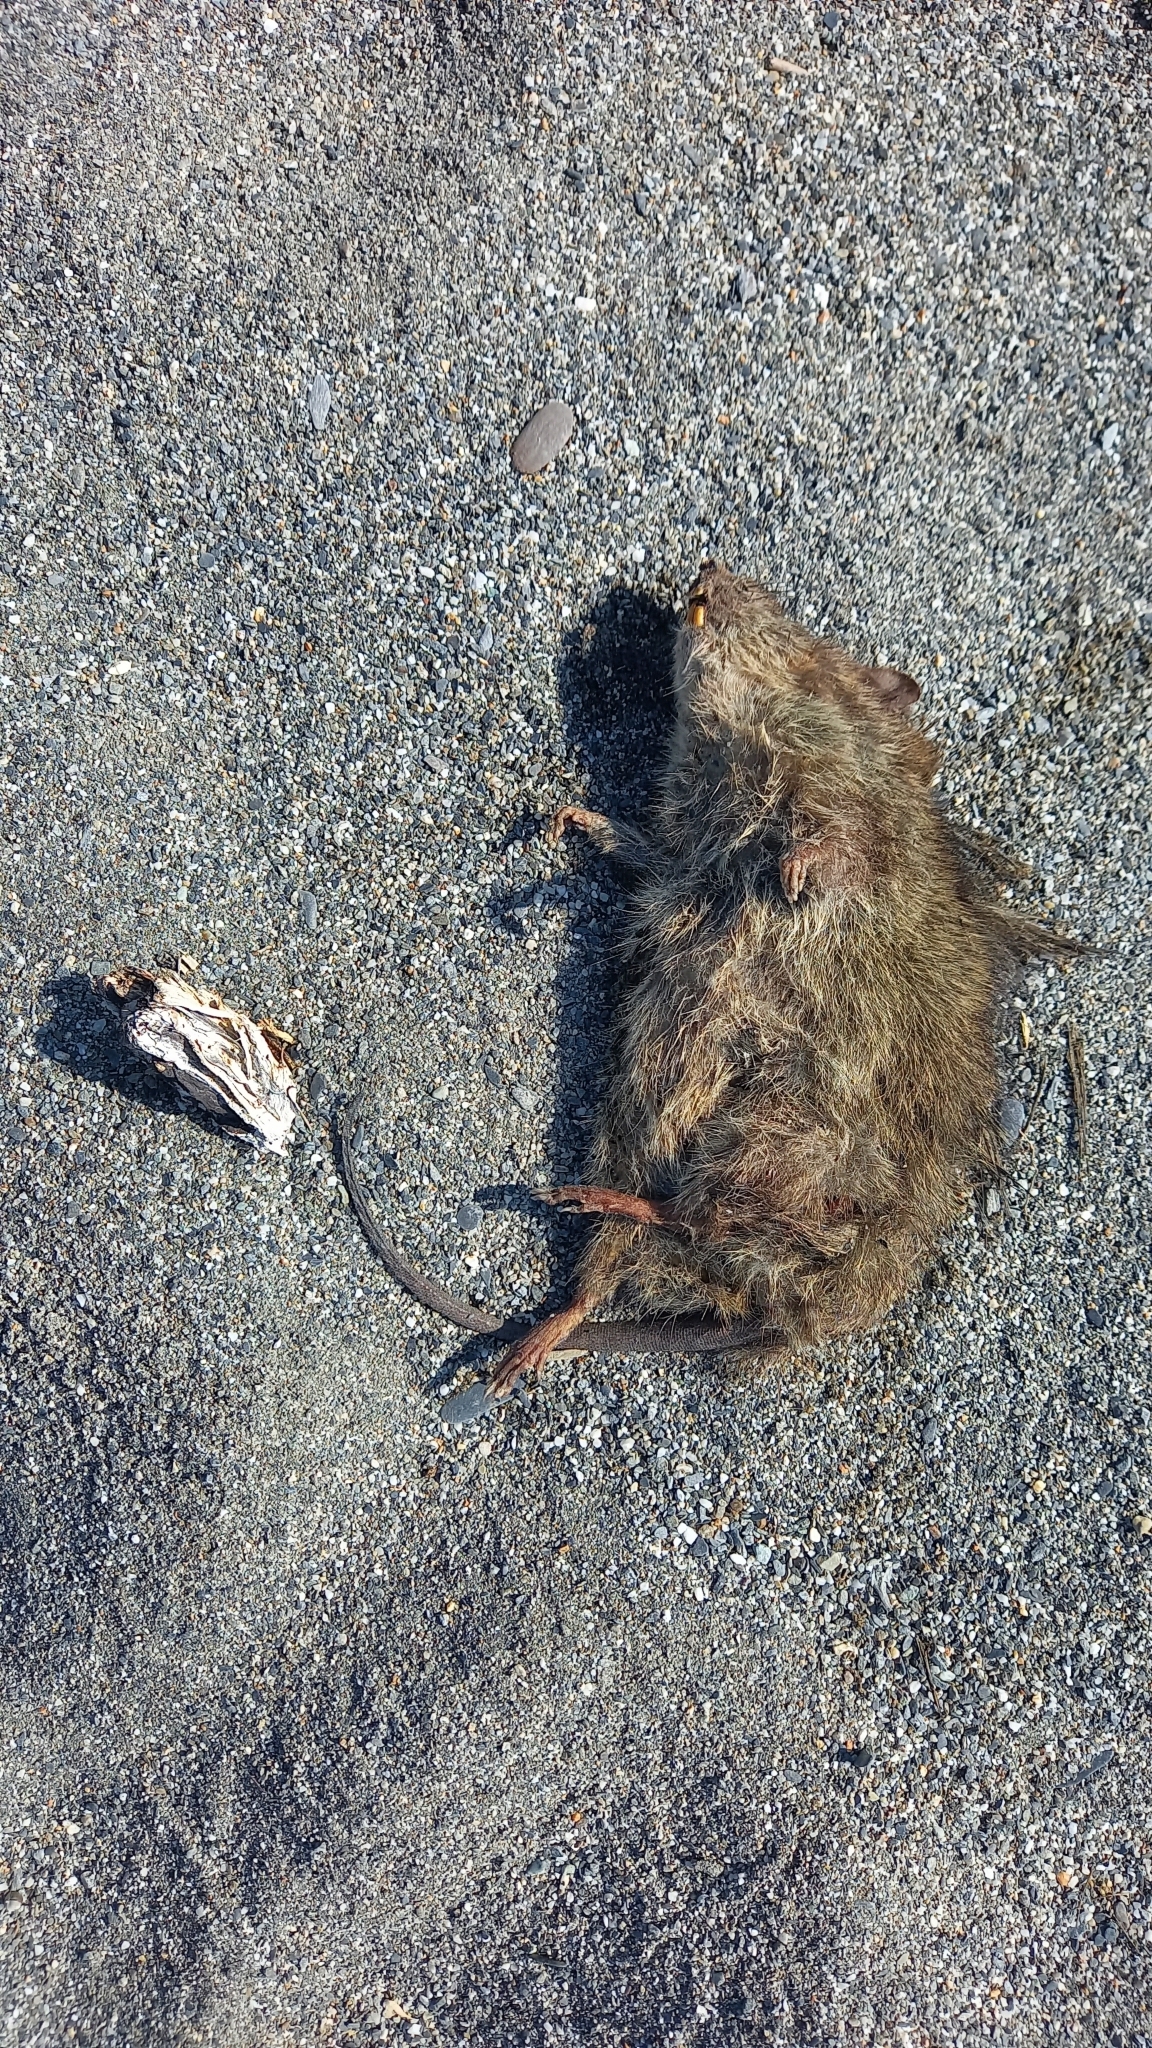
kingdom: Animalia
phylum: Chordata
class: Mammalia
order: Rodentia
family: Muridae
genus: Bandicota
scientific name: Bandicota indica
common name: Greater bandicoot rat
